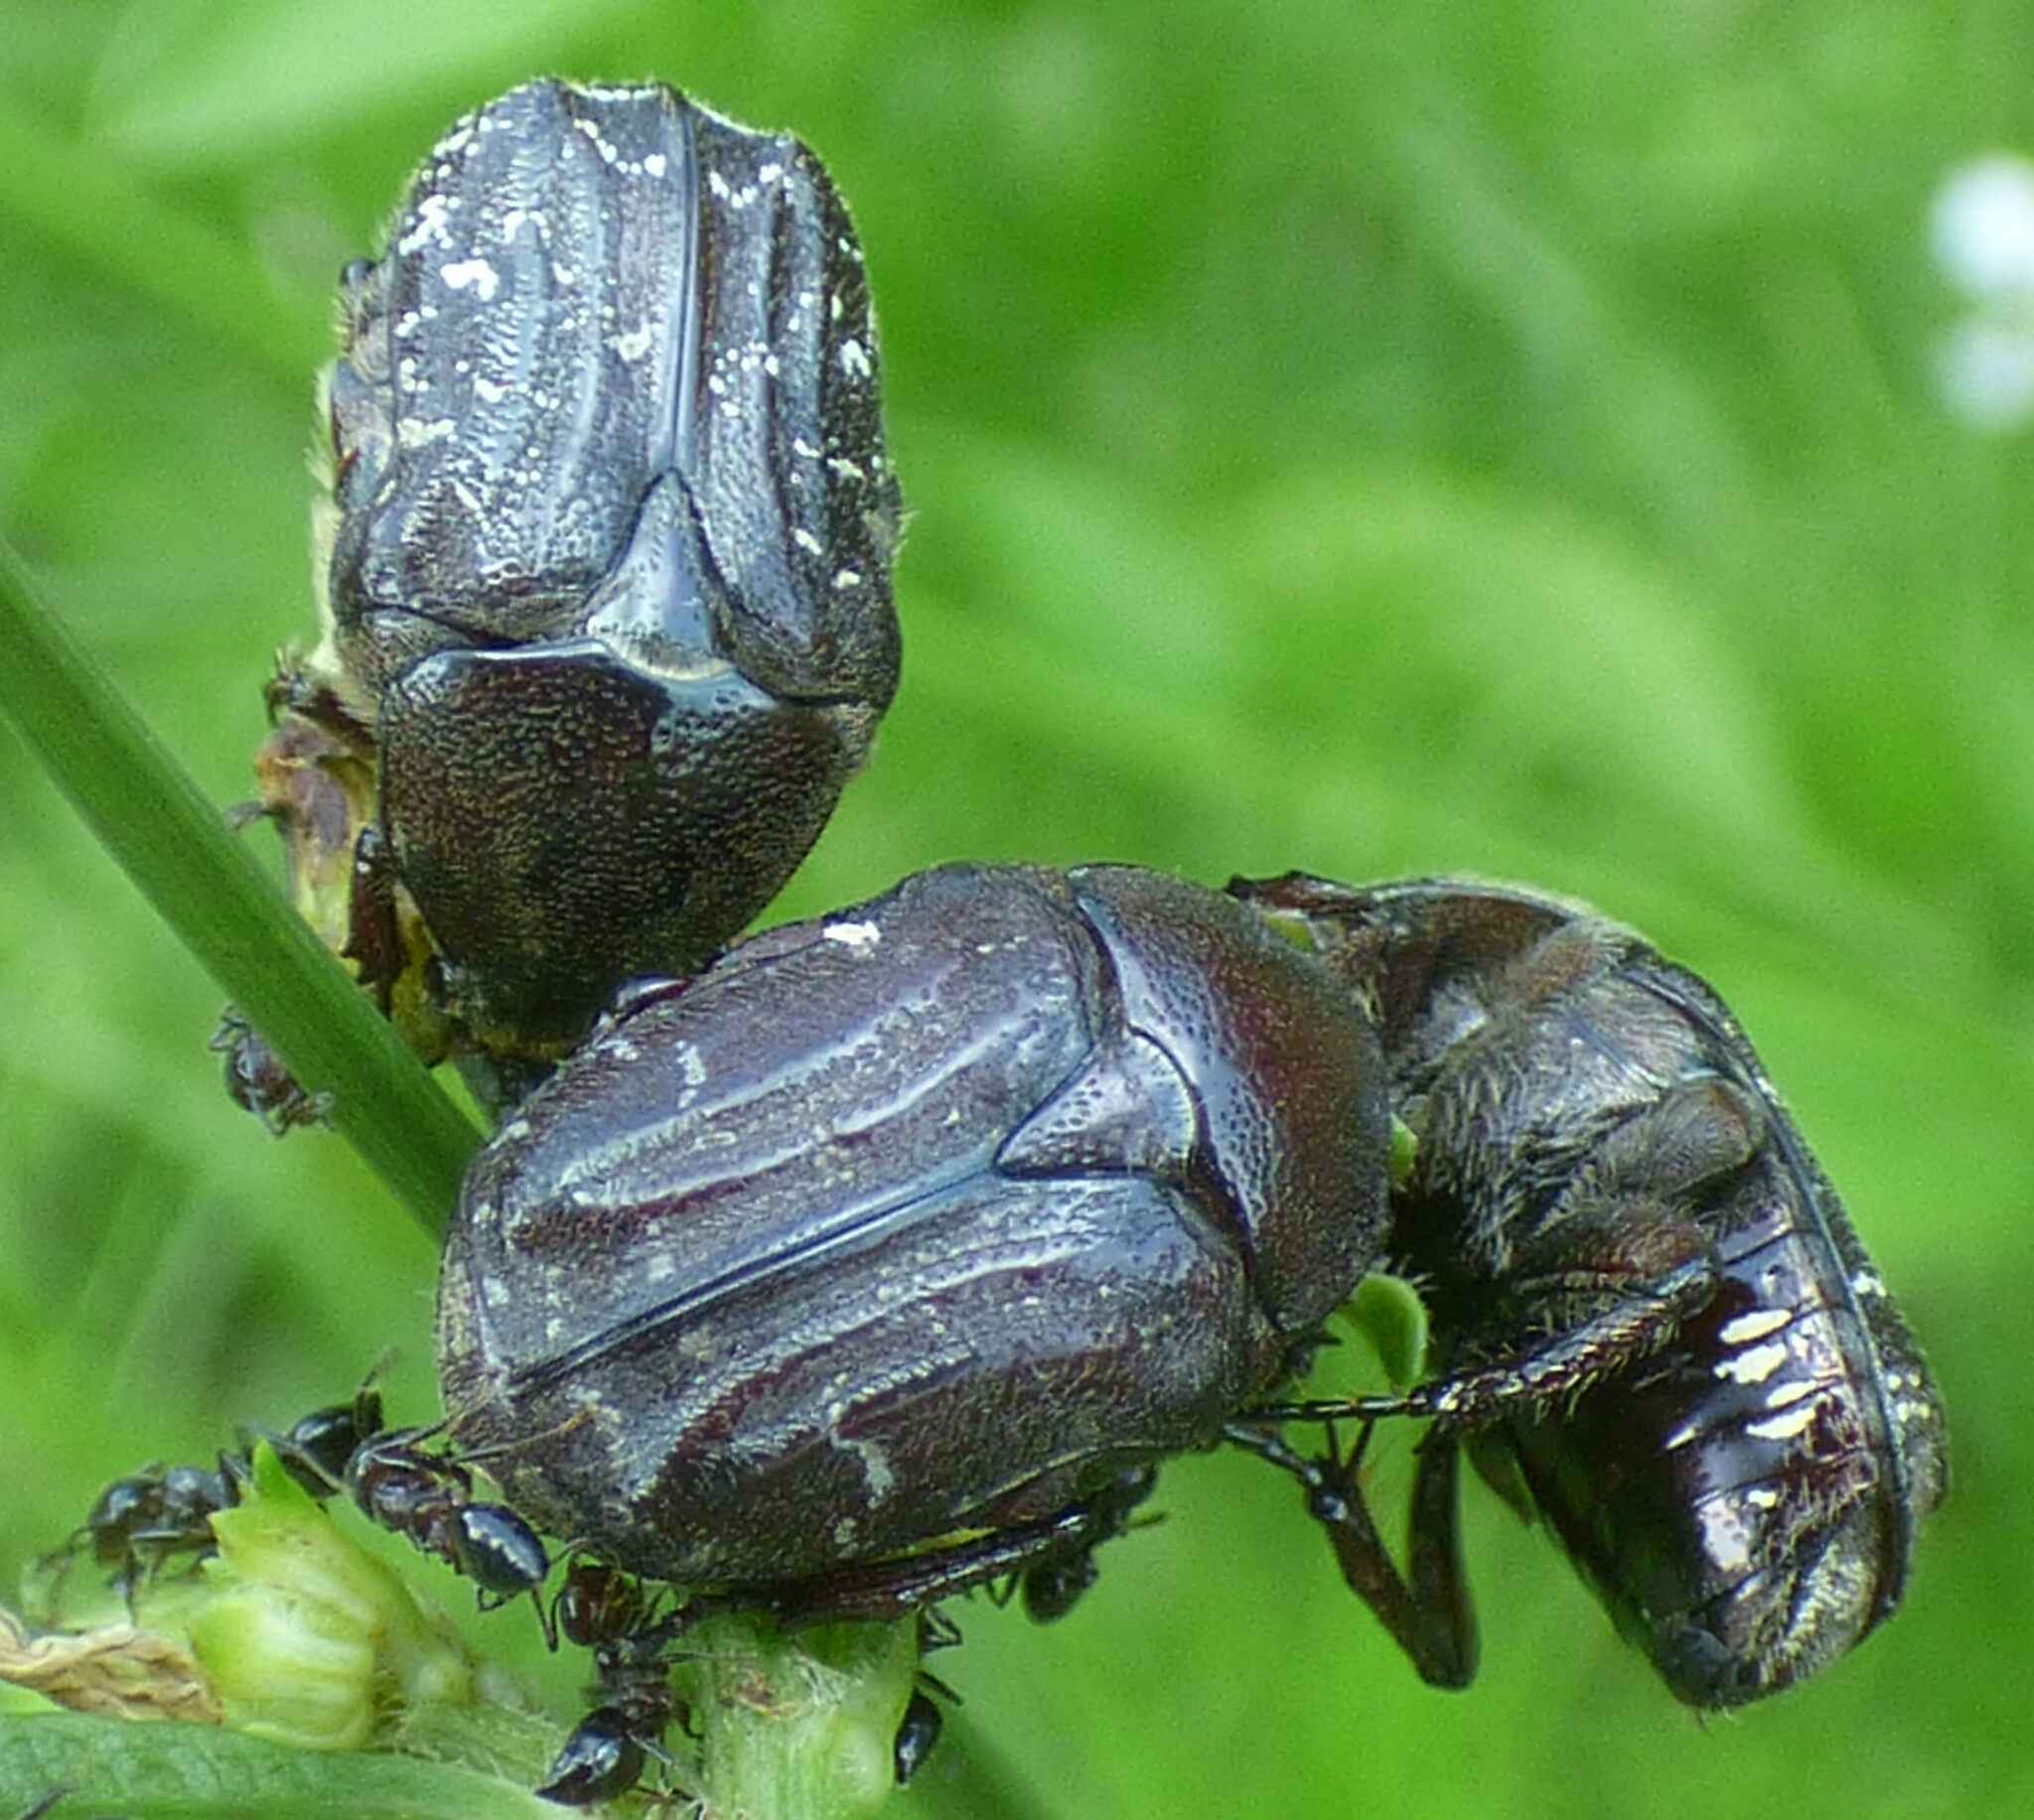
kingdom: Animalia
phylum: Arthropoda
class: Insecta
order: Coleoptera
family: Scarabaeidae
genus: Euphoria
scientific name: Euphoria sepulcralis
